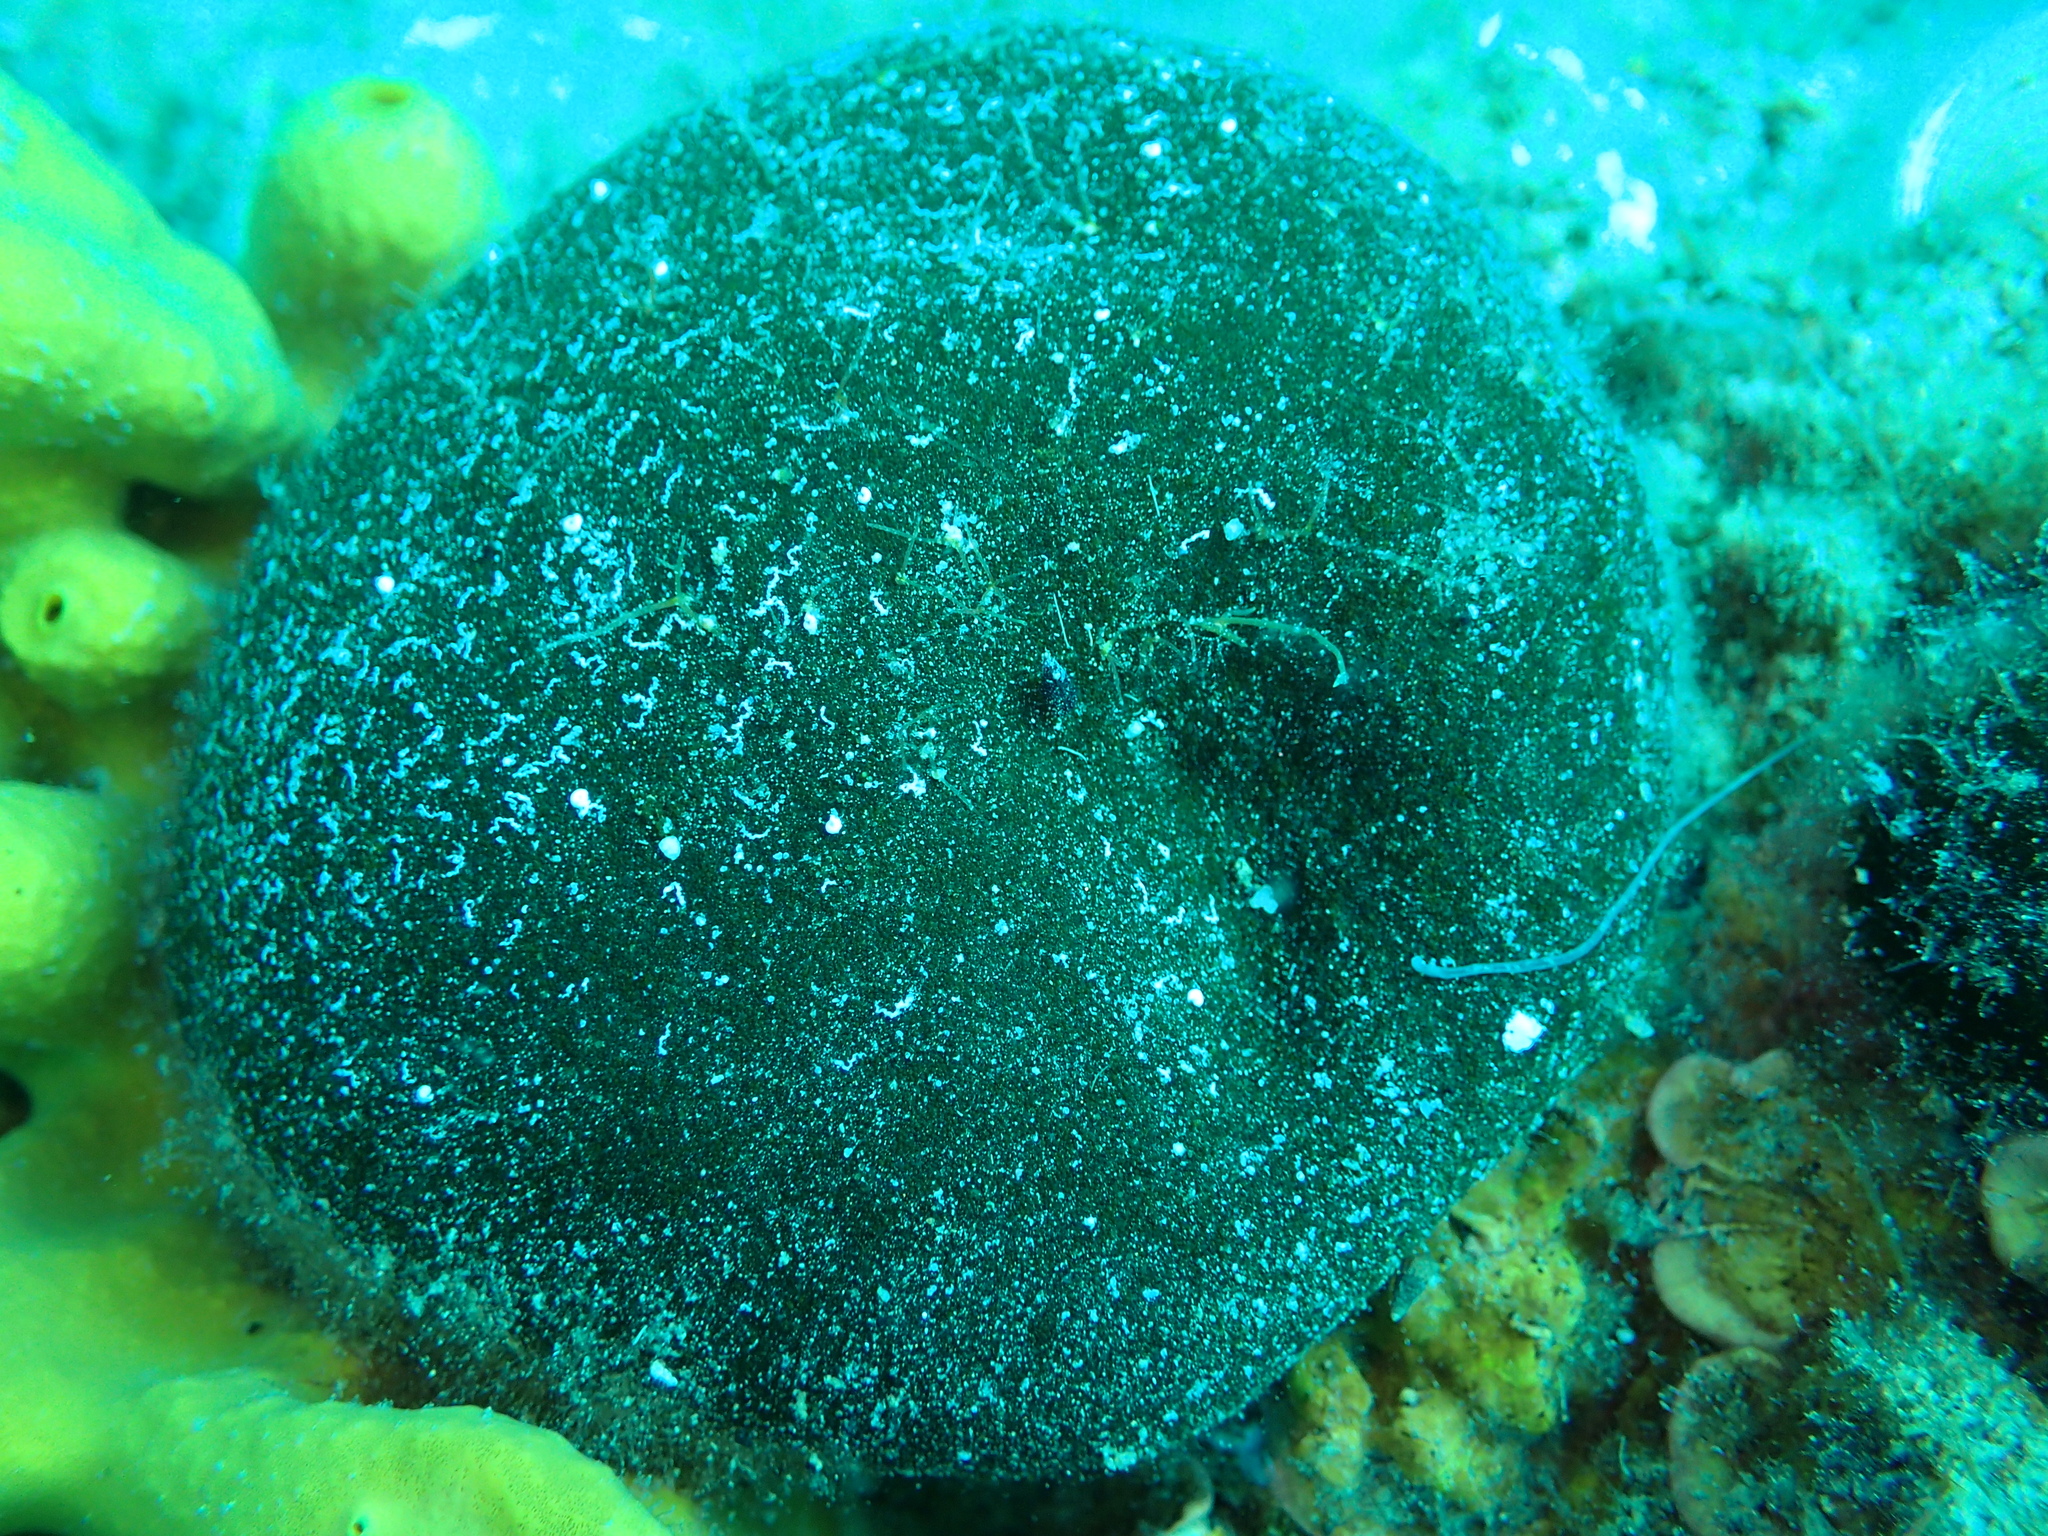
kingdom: Plantae
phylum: Chlorophyta
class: Ulvophyceae
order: Bryopsidales
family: Codiaceae
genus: Codium
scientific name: Codium bursa
